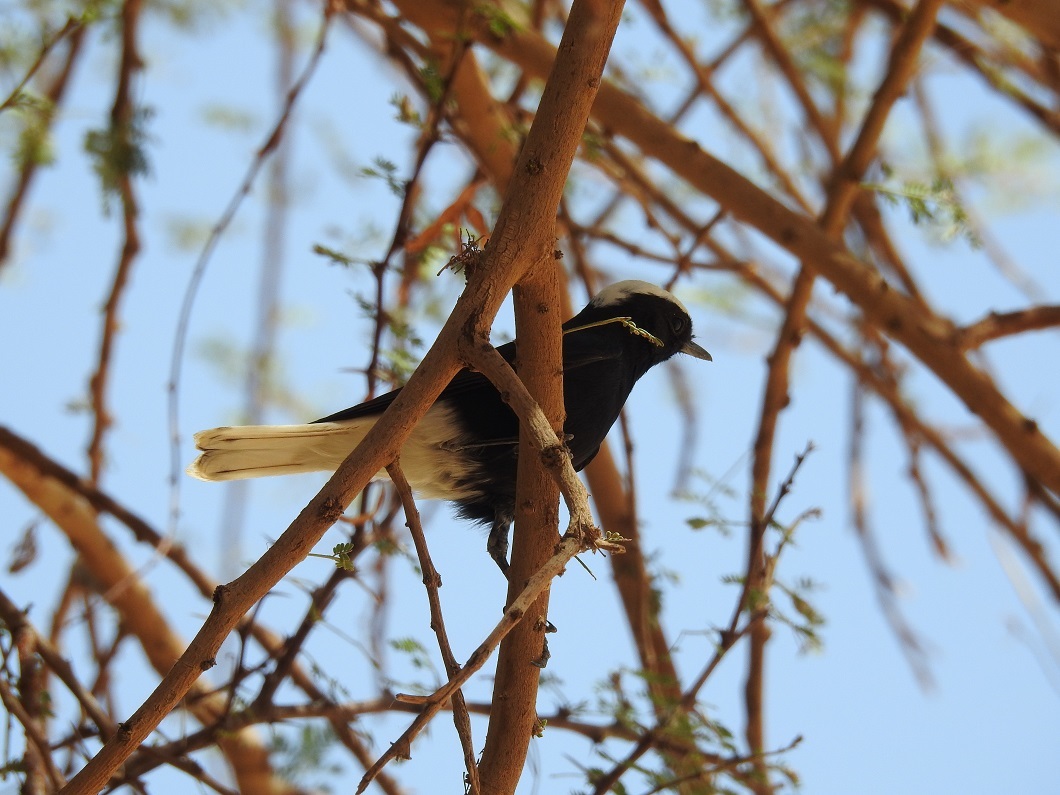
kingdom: Animalia
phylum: Chordata
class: Aves
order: Passeriformes
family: Muscicapidae
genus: Oenanthe
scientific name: Oenanthe leucopyga
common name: White-crowned wheatear
